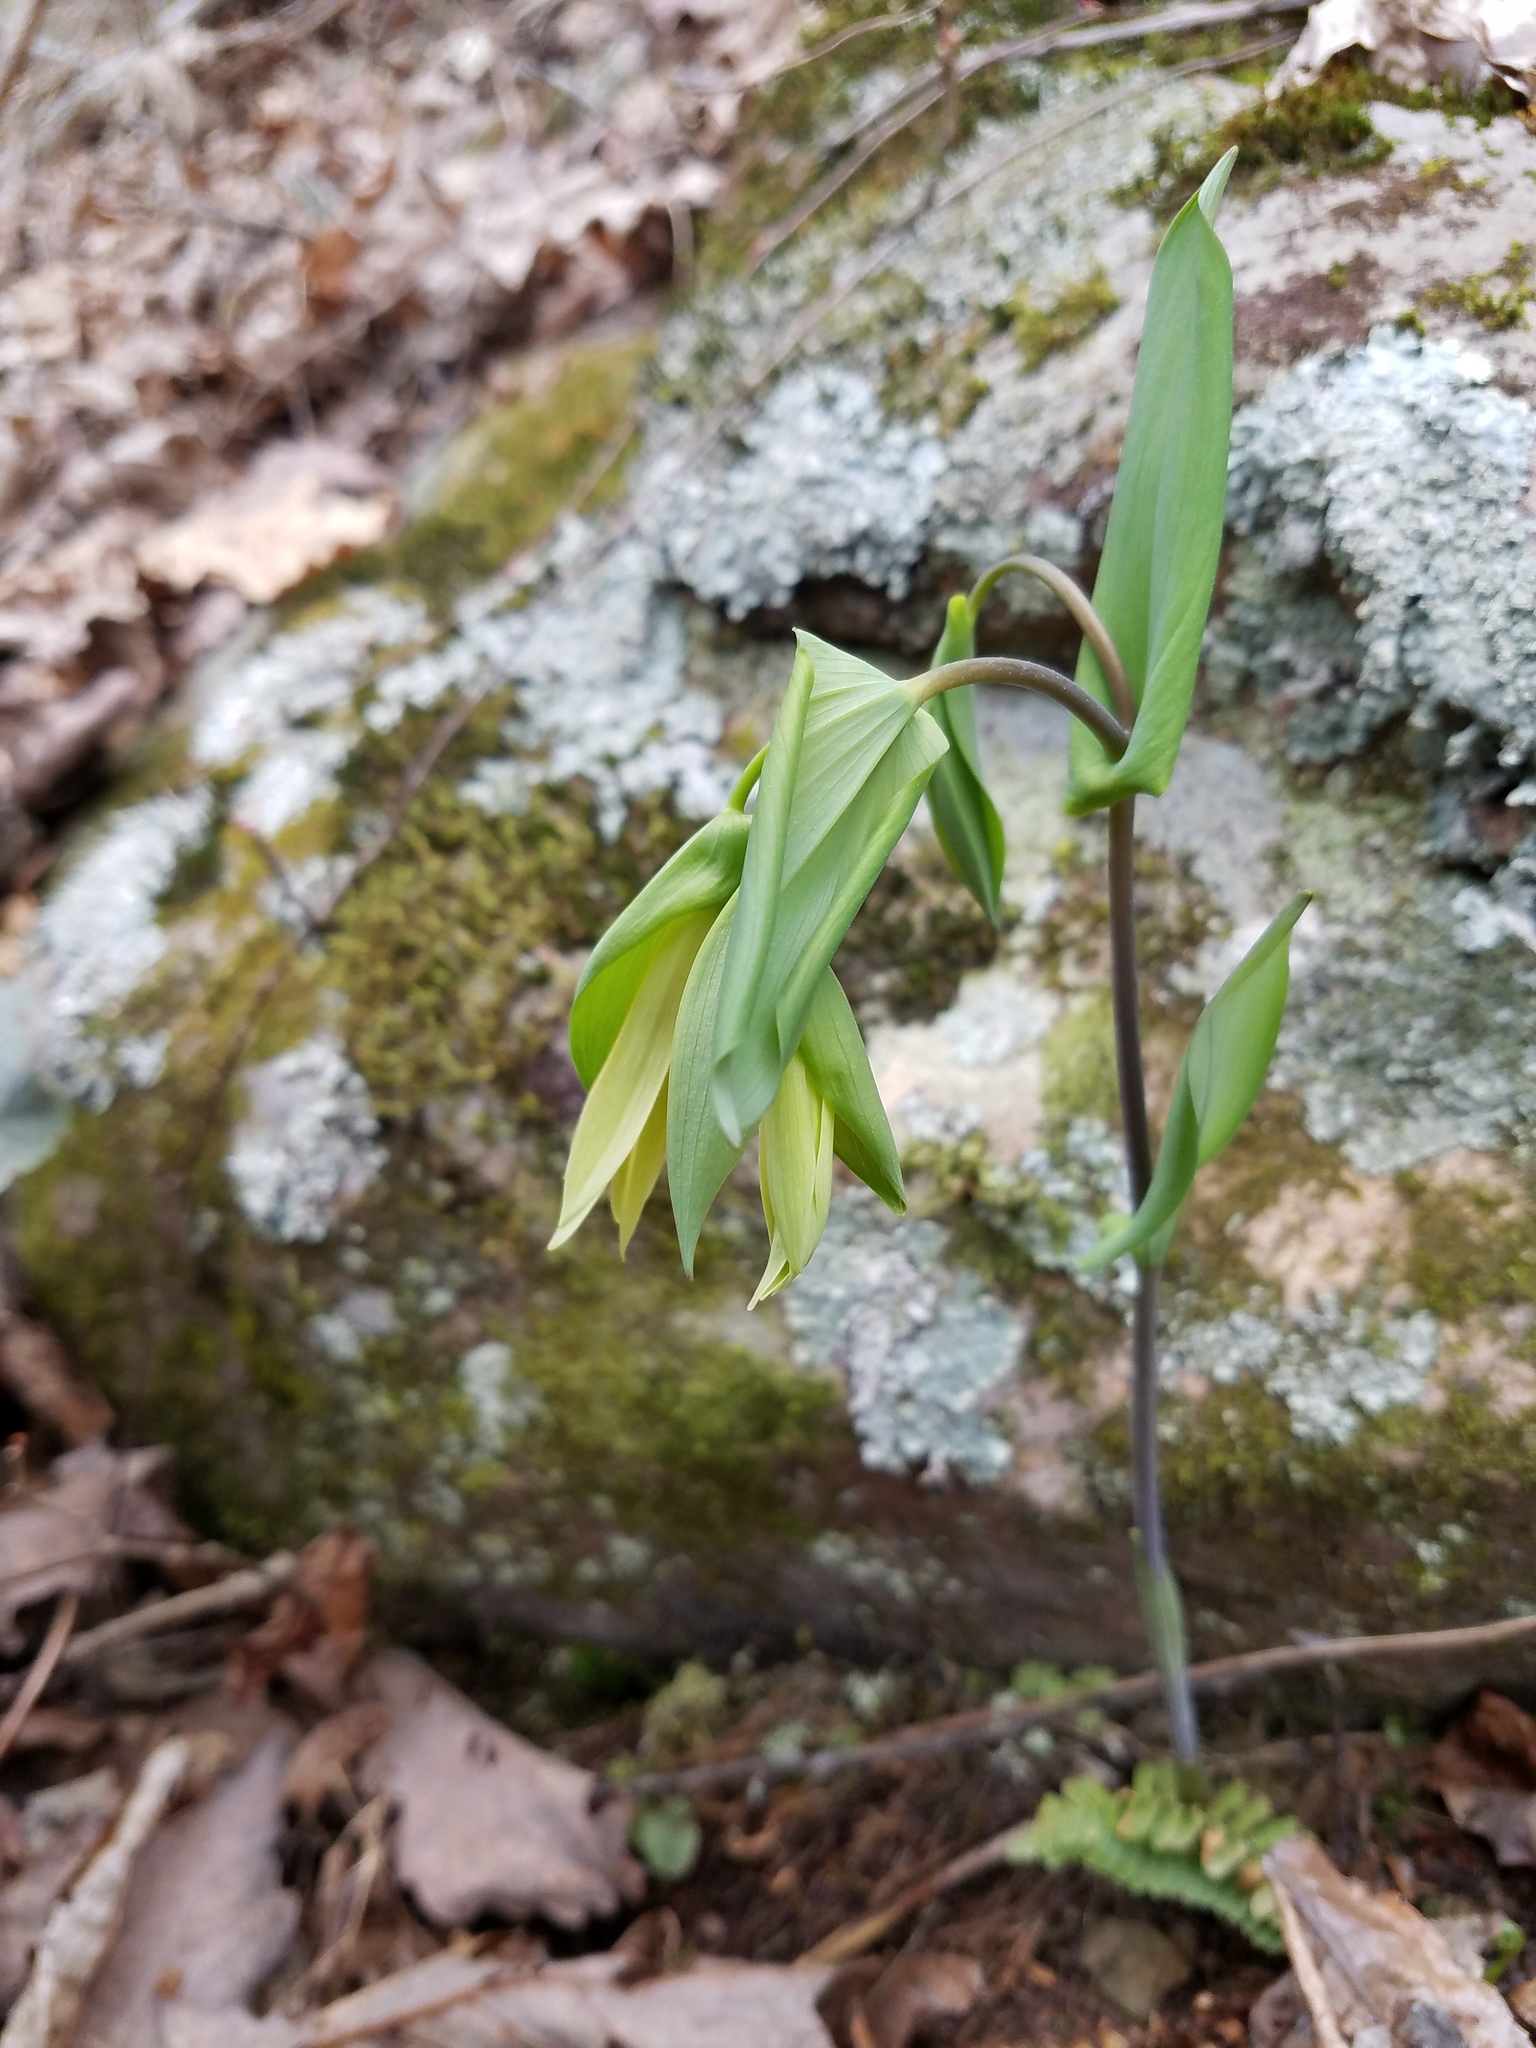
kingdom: Plantae
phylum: Tracheophyta
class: Liliopsida
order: Liliales
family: Colchicaceae
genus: Uvularia
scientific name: Uvularia perfoliata
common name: Perfoliate bellwort
